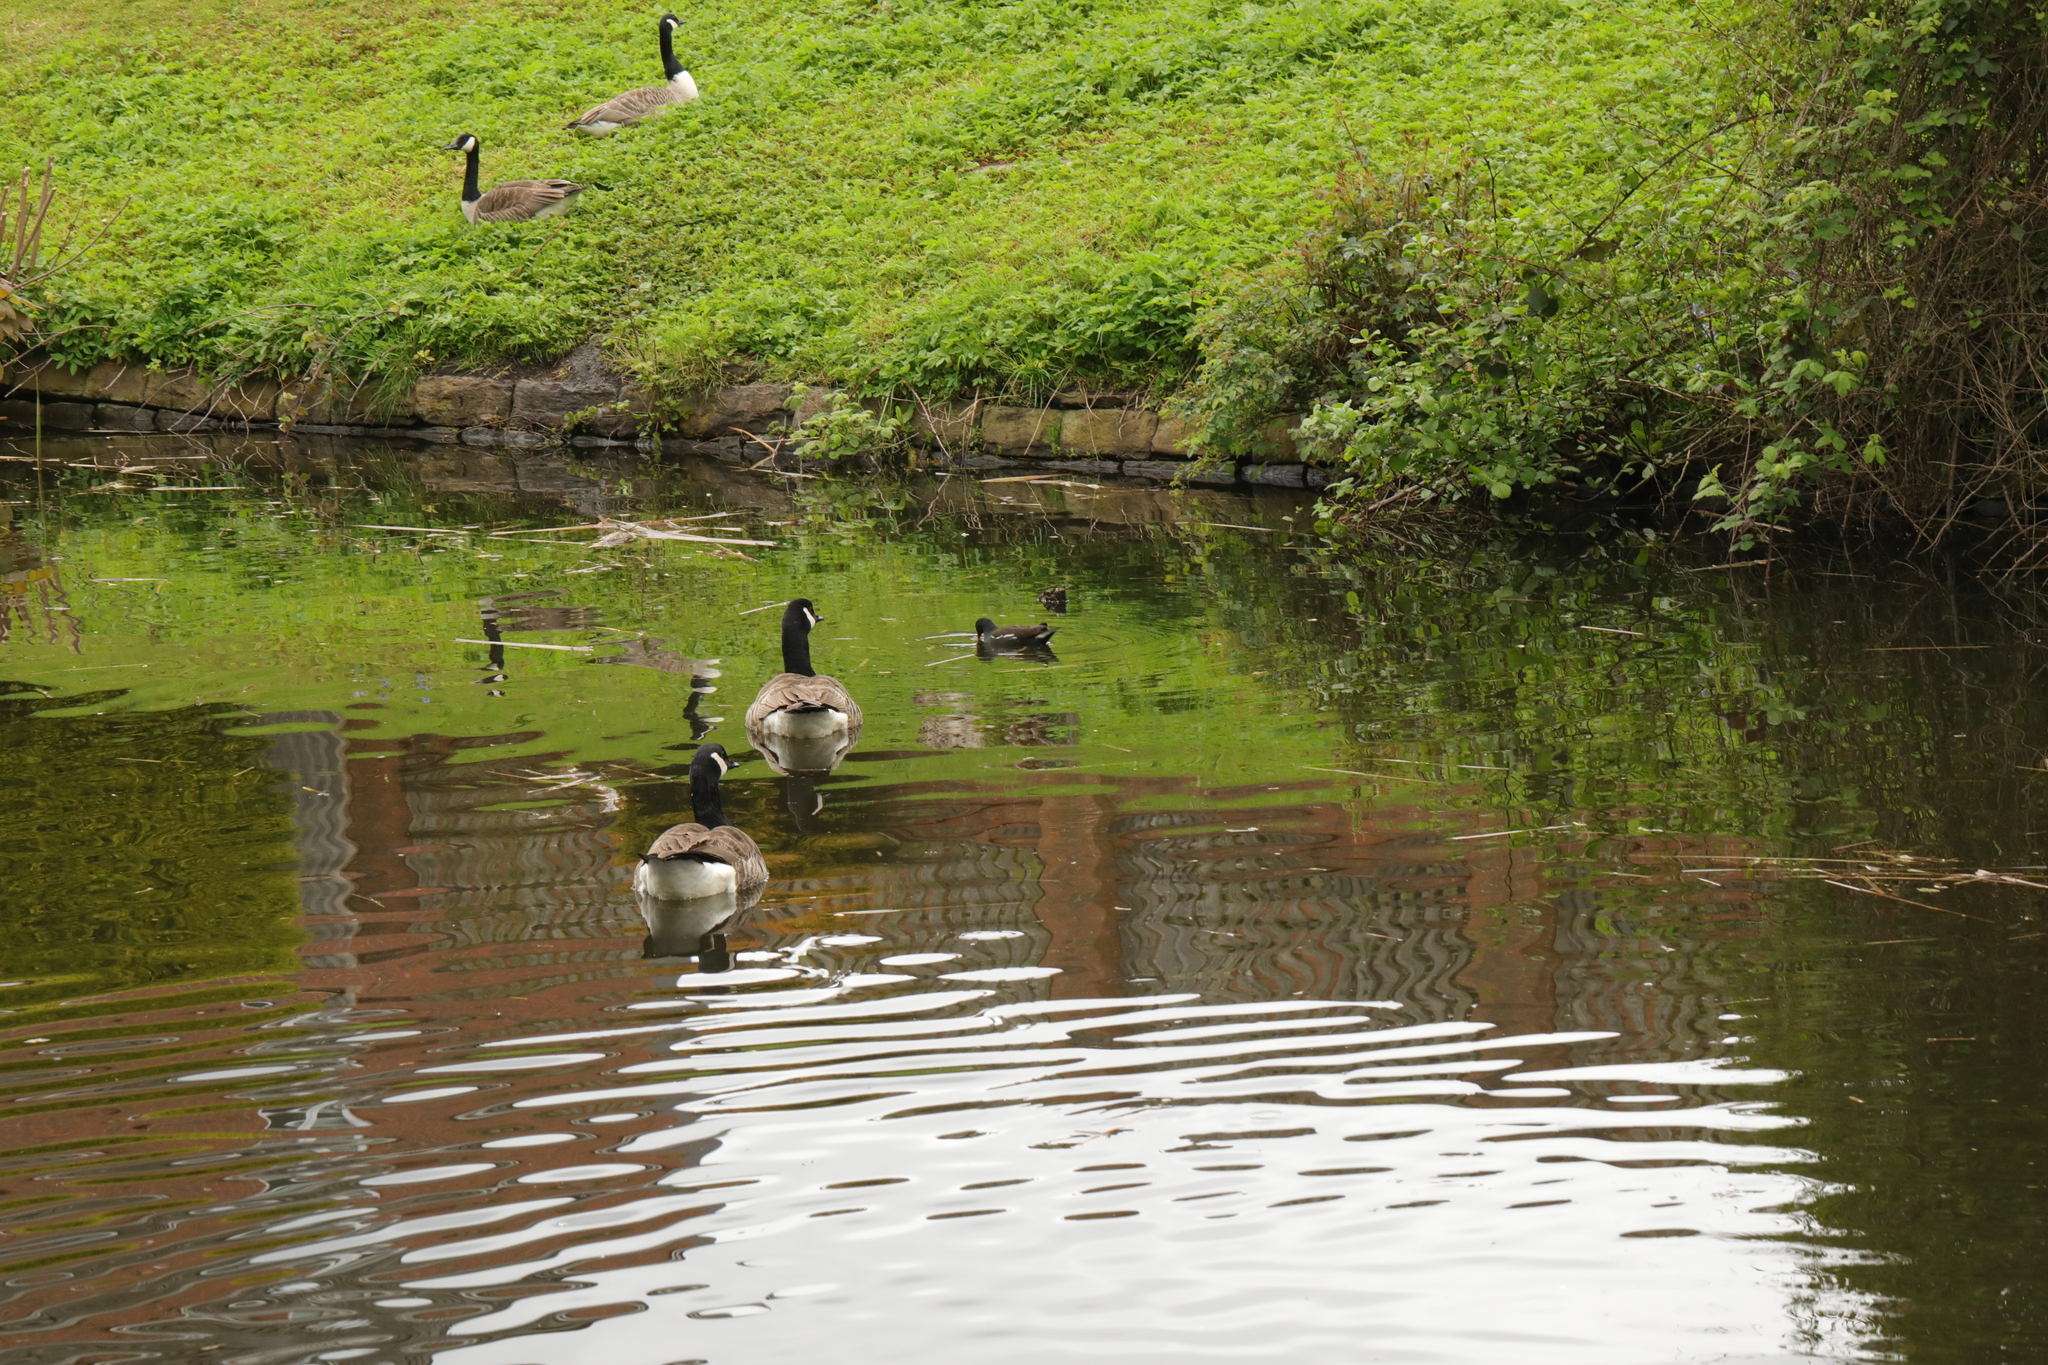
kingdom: Animalia
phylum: Chordata
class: Aves
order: Anseriformes
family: Anatidae
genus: Branta
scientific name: Branta canadensis
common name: Canada goose
